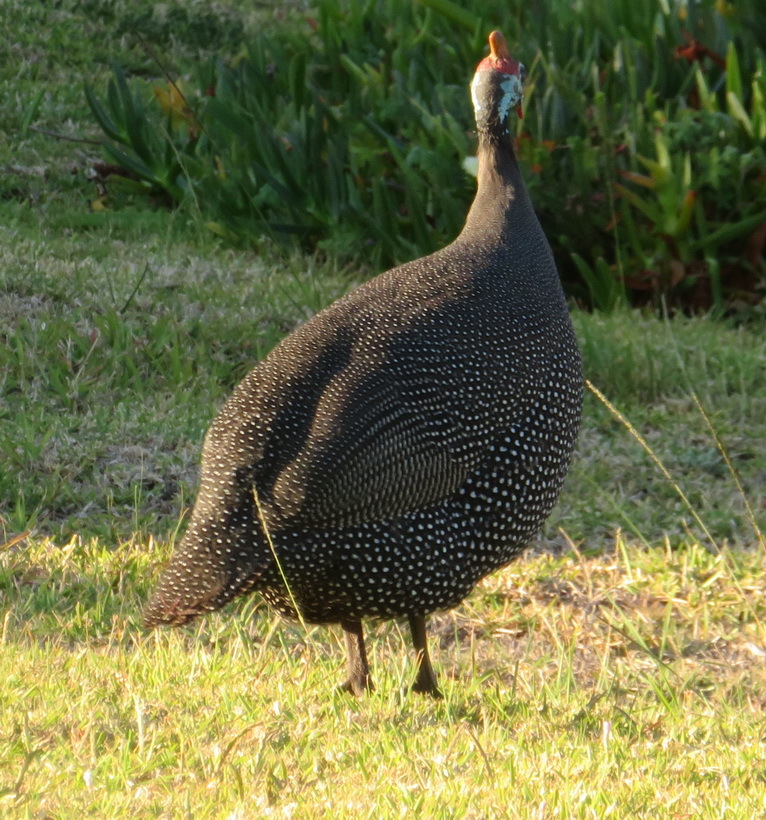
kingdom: Animalia
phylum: Chordata
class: Aves
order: Galliformes
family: Numididae
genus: Numida
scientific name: Numida meleagris
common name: Helmeted guineafowl
